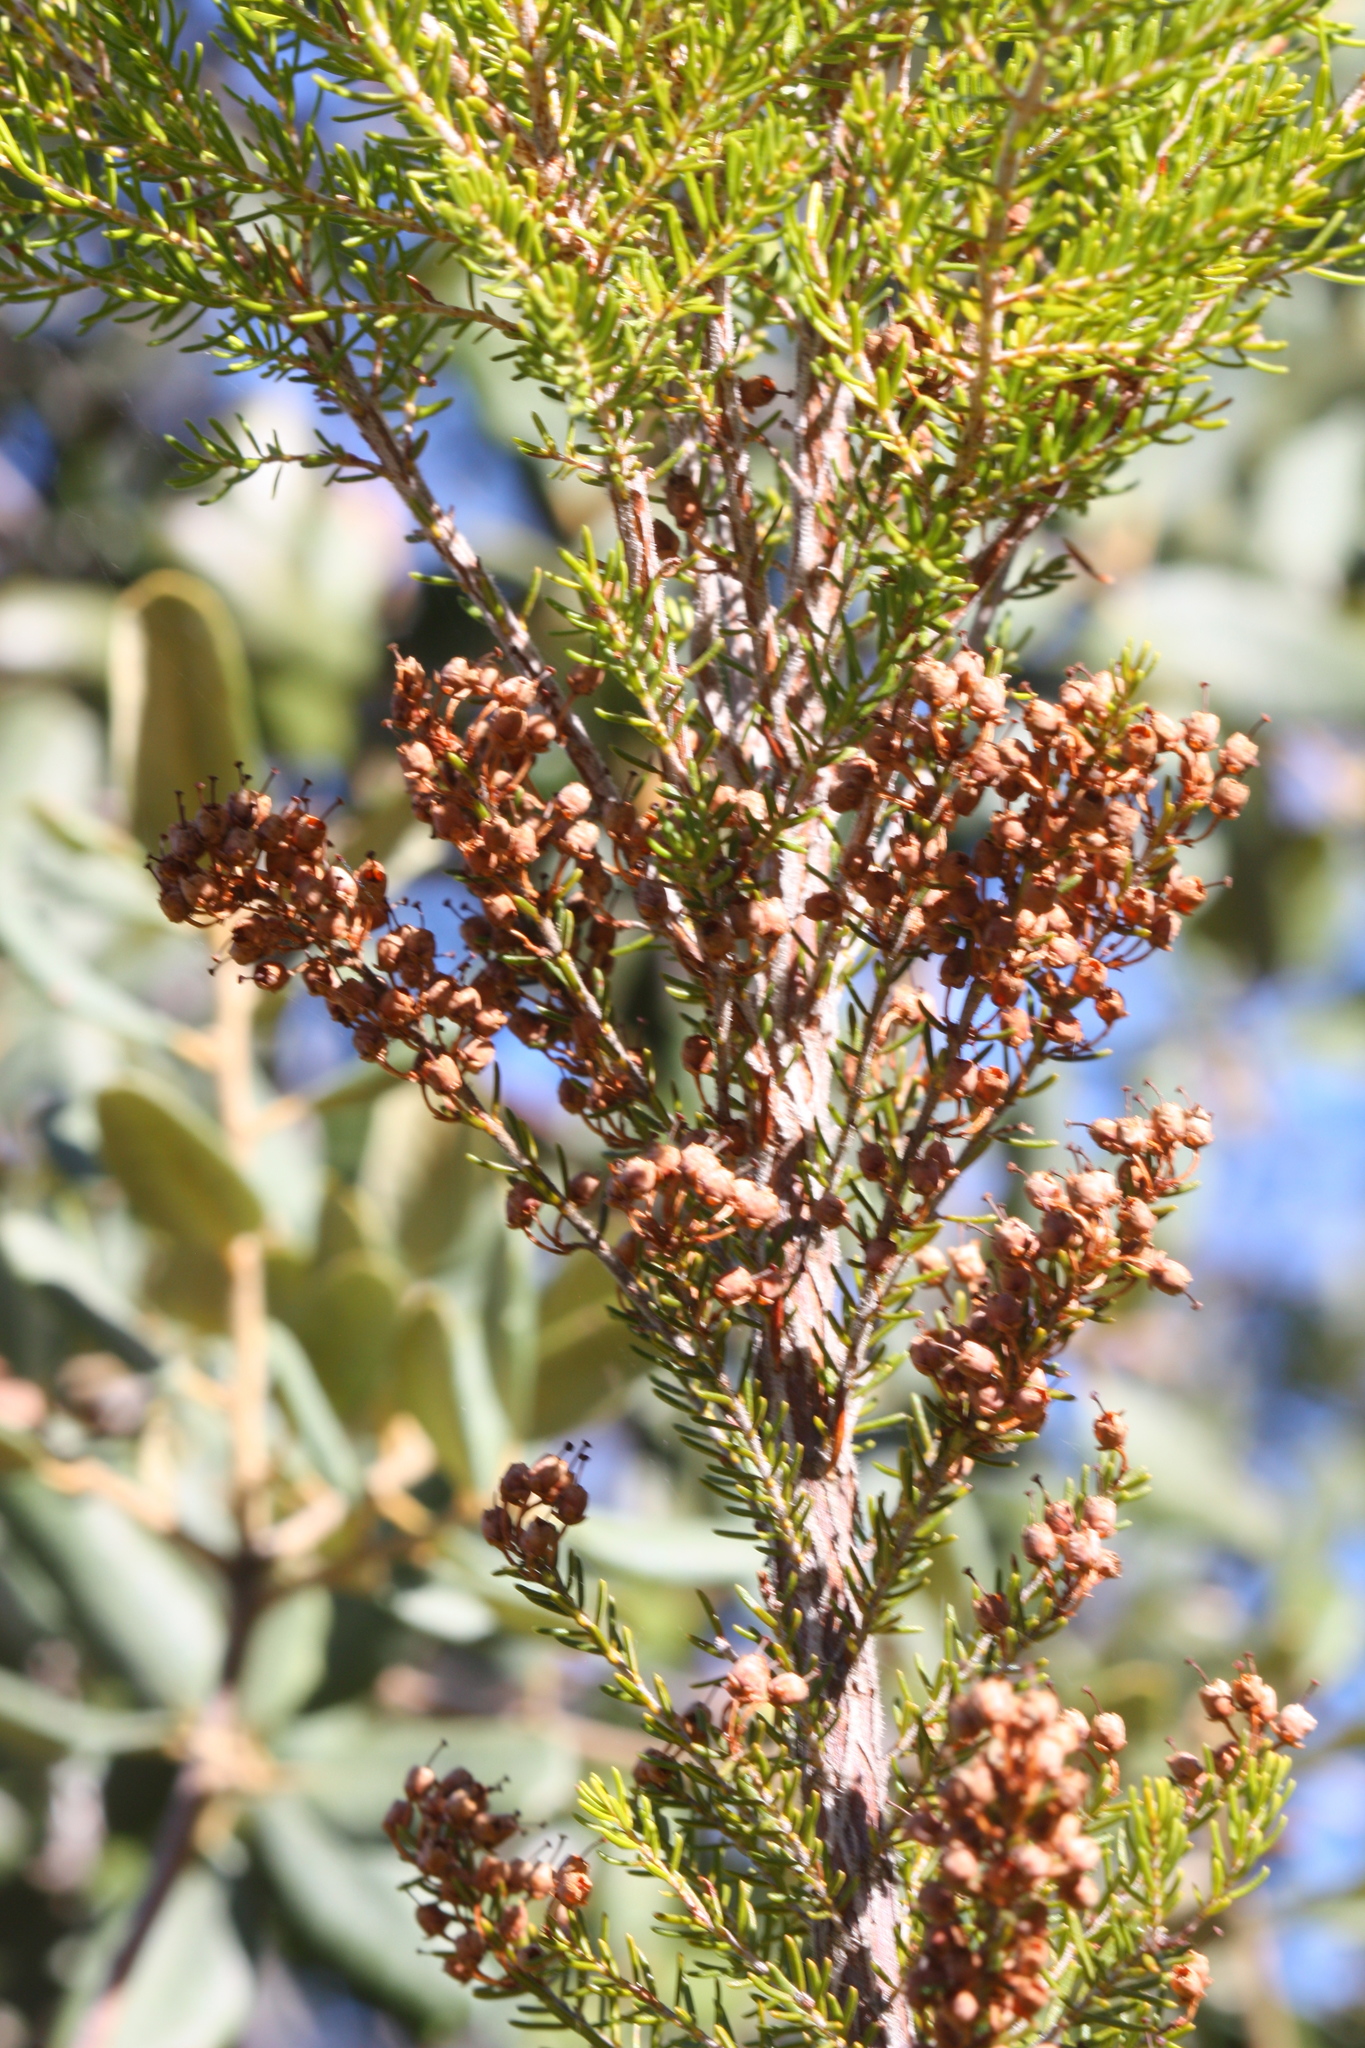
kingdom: Plantae
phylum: Tracheophyta
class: Magnoliopsida
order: Ericales
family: Ericaceae
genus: Erica
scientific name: Erica arborea
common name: Tree heath
